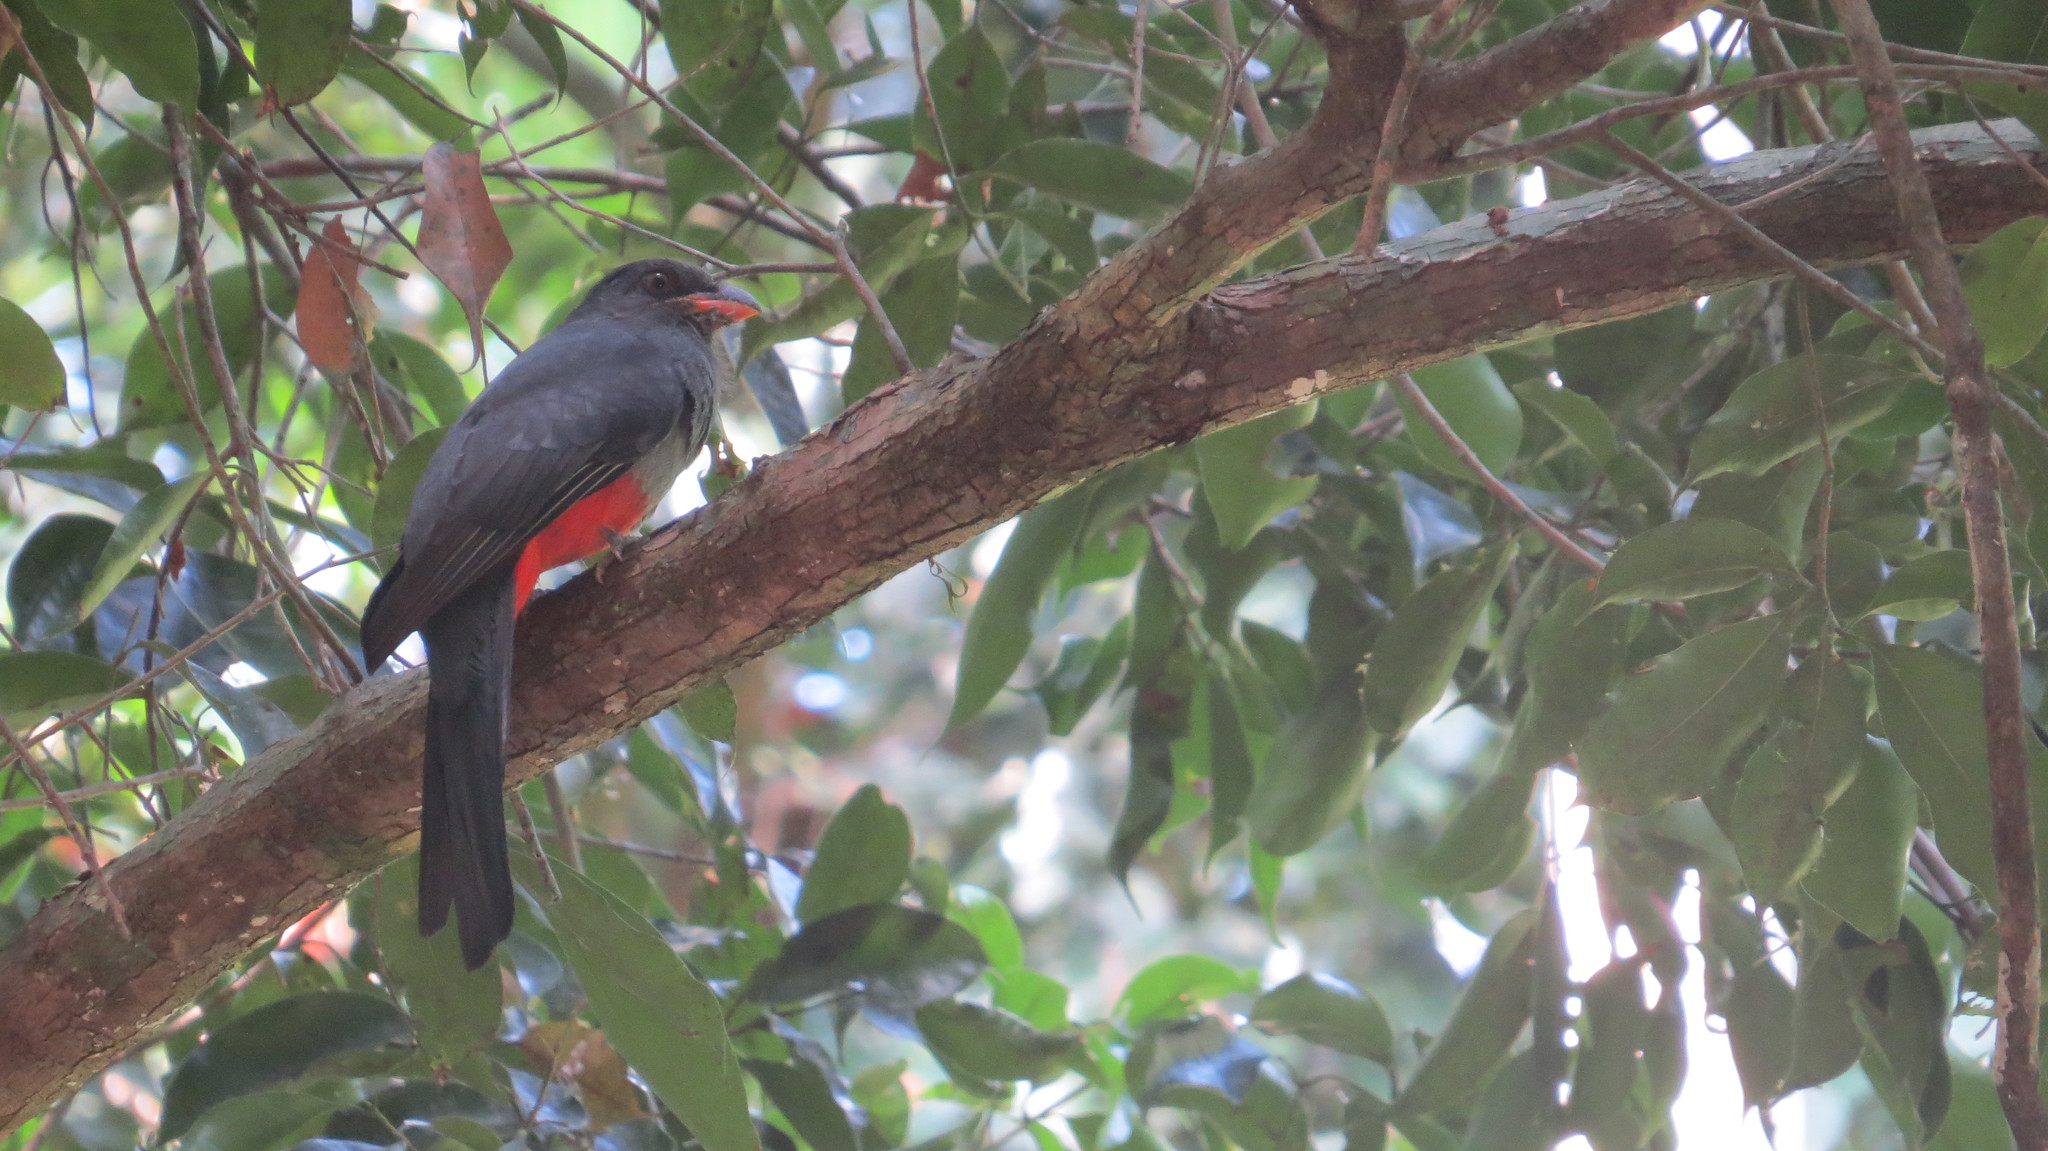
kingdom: Animalia
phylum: Chordata
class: Aves
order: Trogoniformes
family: Trogonidae
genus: Trogon
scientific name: Trogon massena
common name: Slaty-tailed trogon
